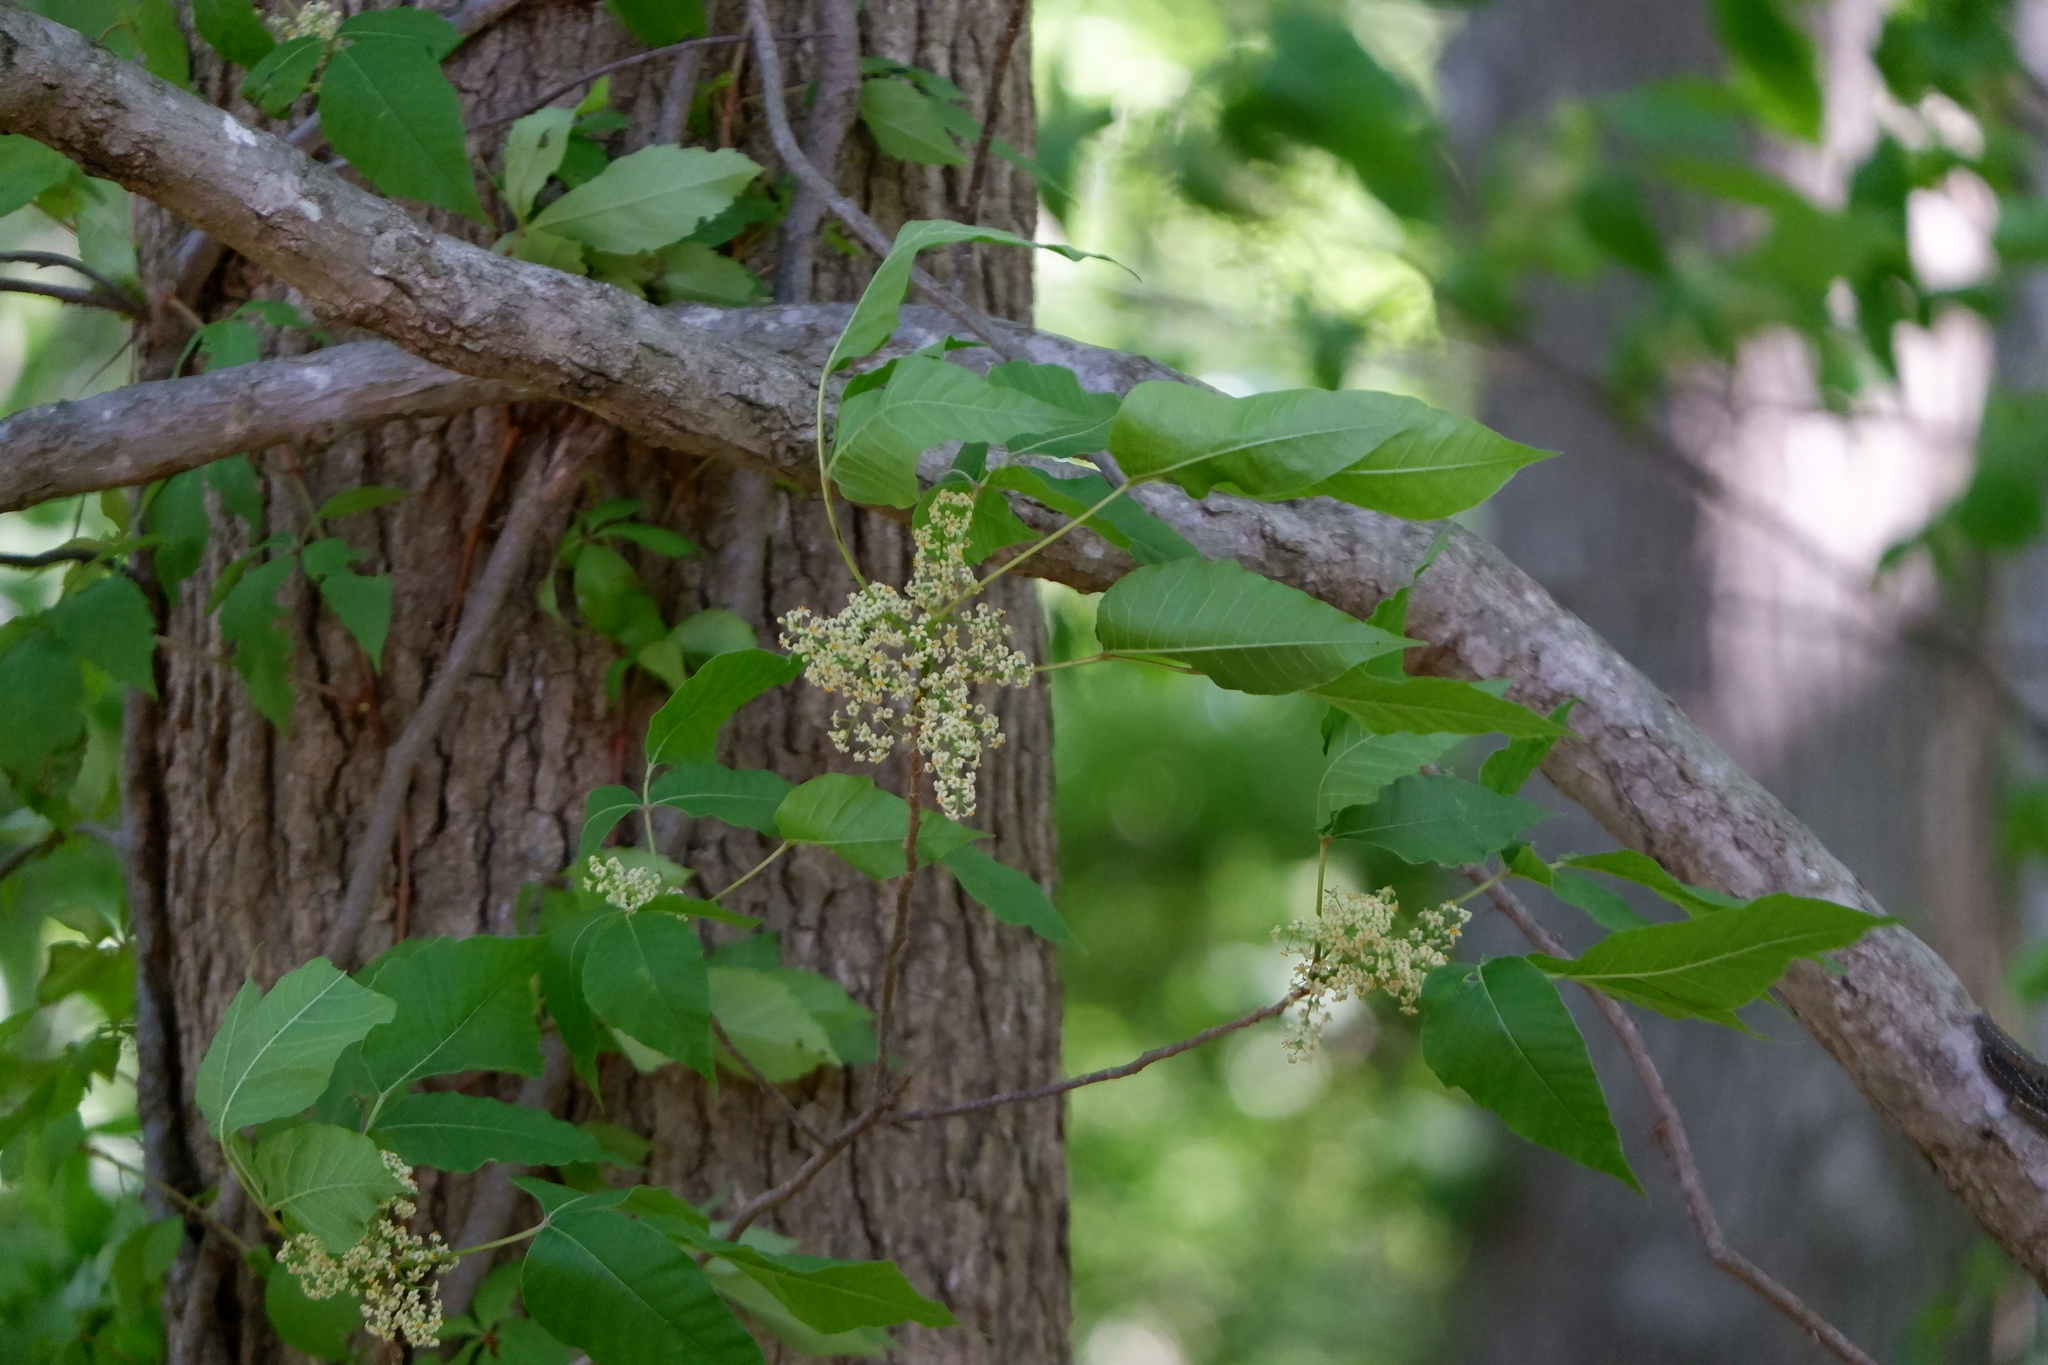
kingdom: Plantae
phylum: Tracheophyta
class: Magnoliopsida
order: Sapindales
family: Anacardiaceae
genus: Toxicodendron
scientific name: Toxicodendron radicans
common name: Poison ivy
